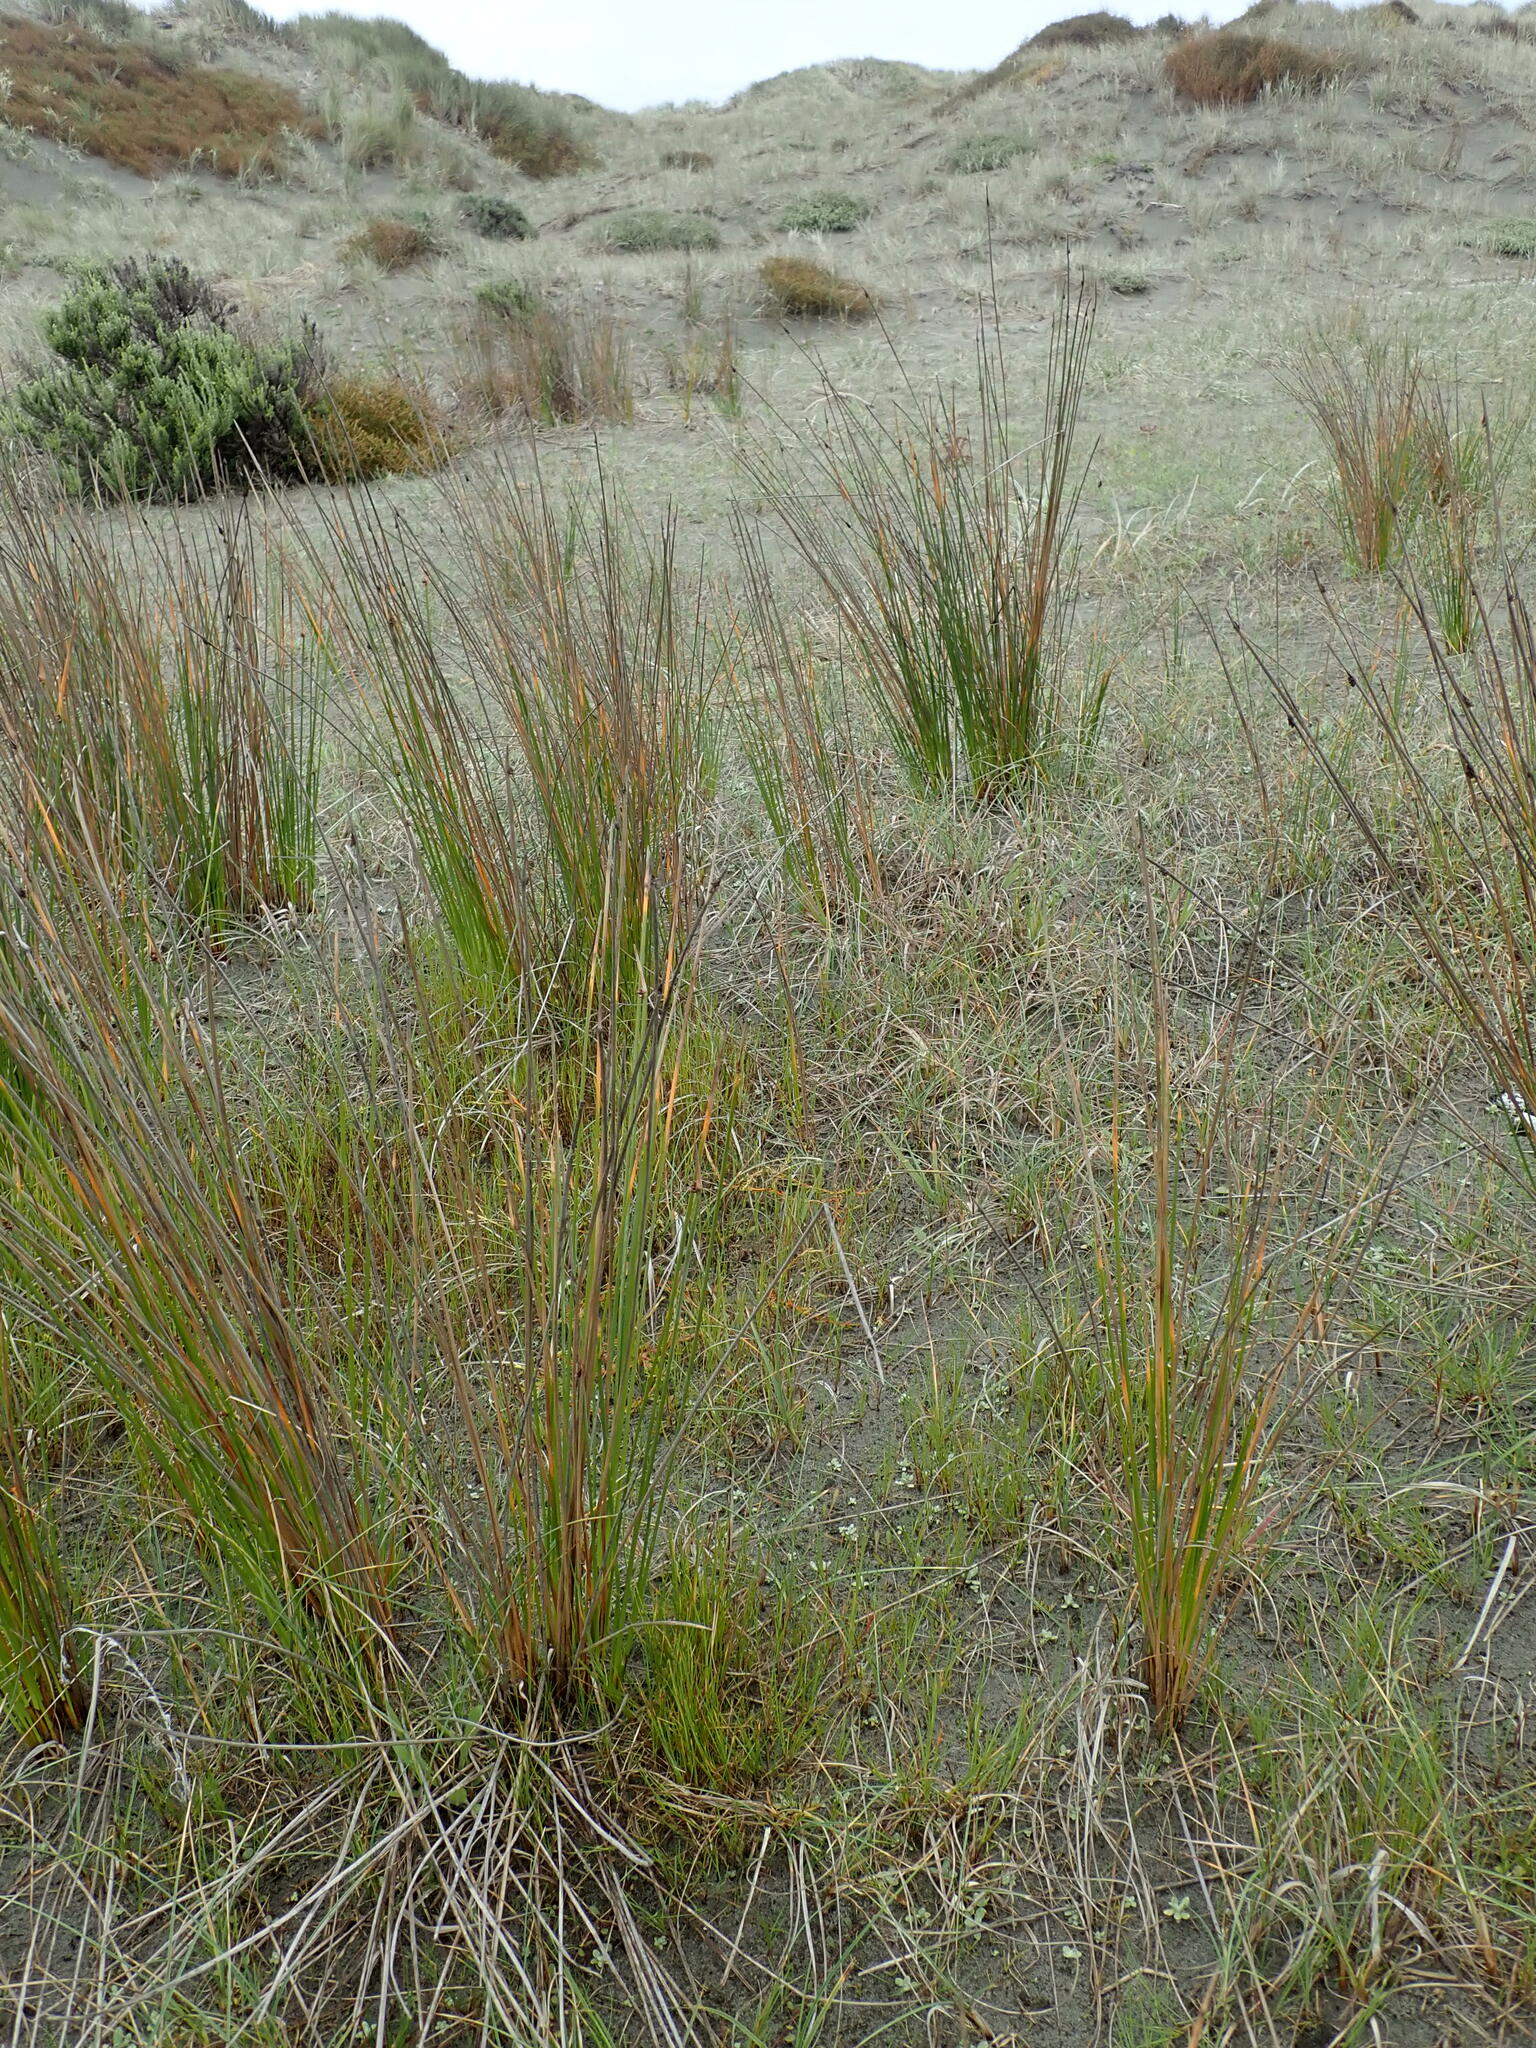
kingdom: Plantae
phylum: Tracheophyta
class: Liliopsida
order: Alismatales
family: Juncaginaceae
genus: Triglochin
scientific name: Triglochin striata
